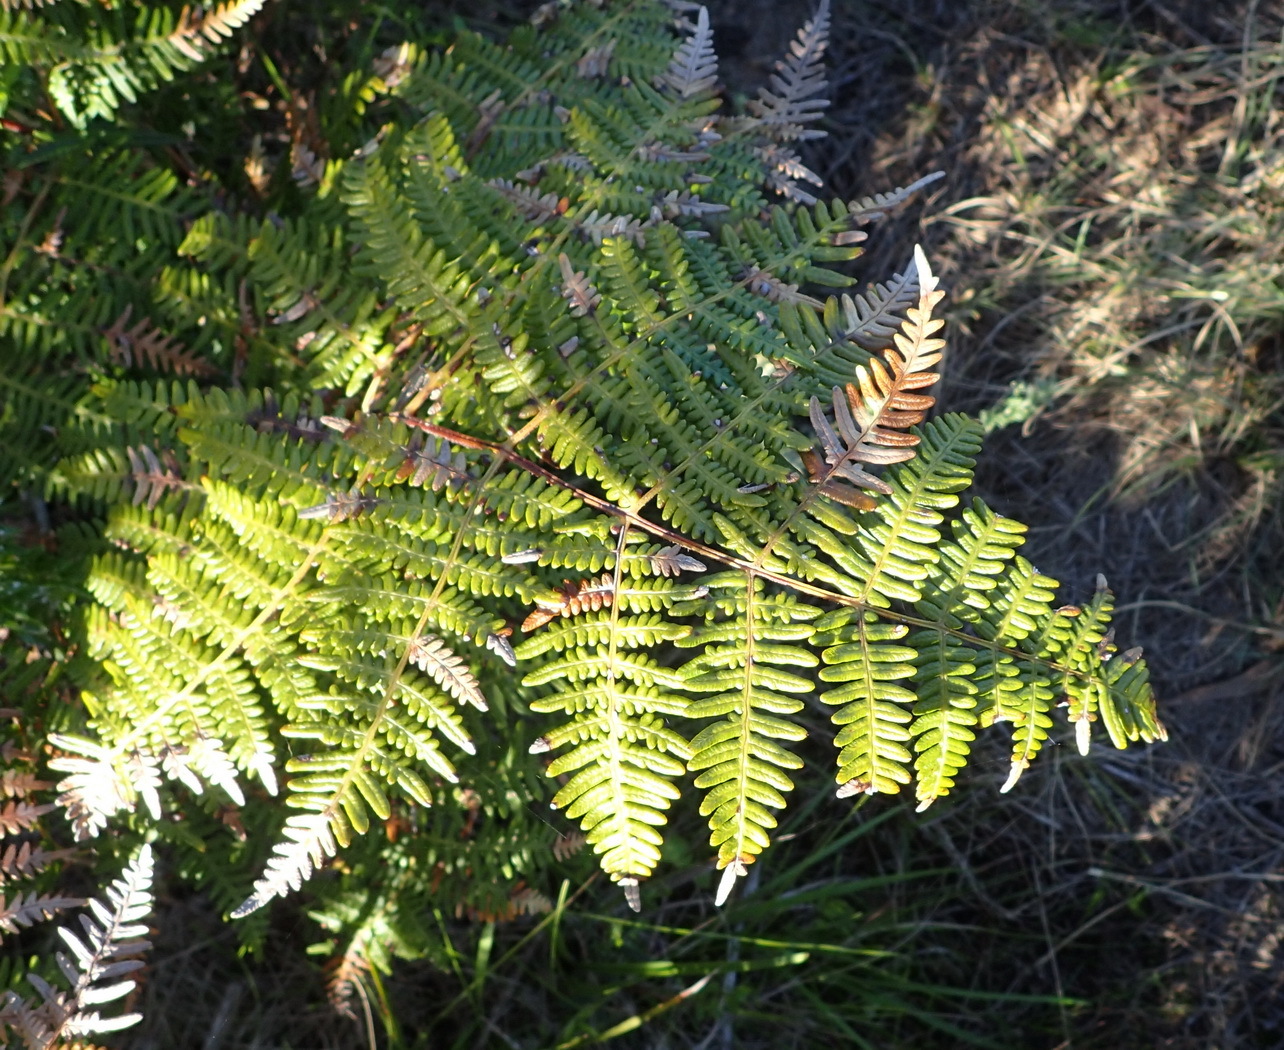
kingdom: Plantae
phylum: Tracheophyta
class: Polypodiopsida
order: Polypodiales
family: Dennstaedtiaceae
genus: Pteridium
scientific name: Pteridium aquilinum
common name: Bracken
